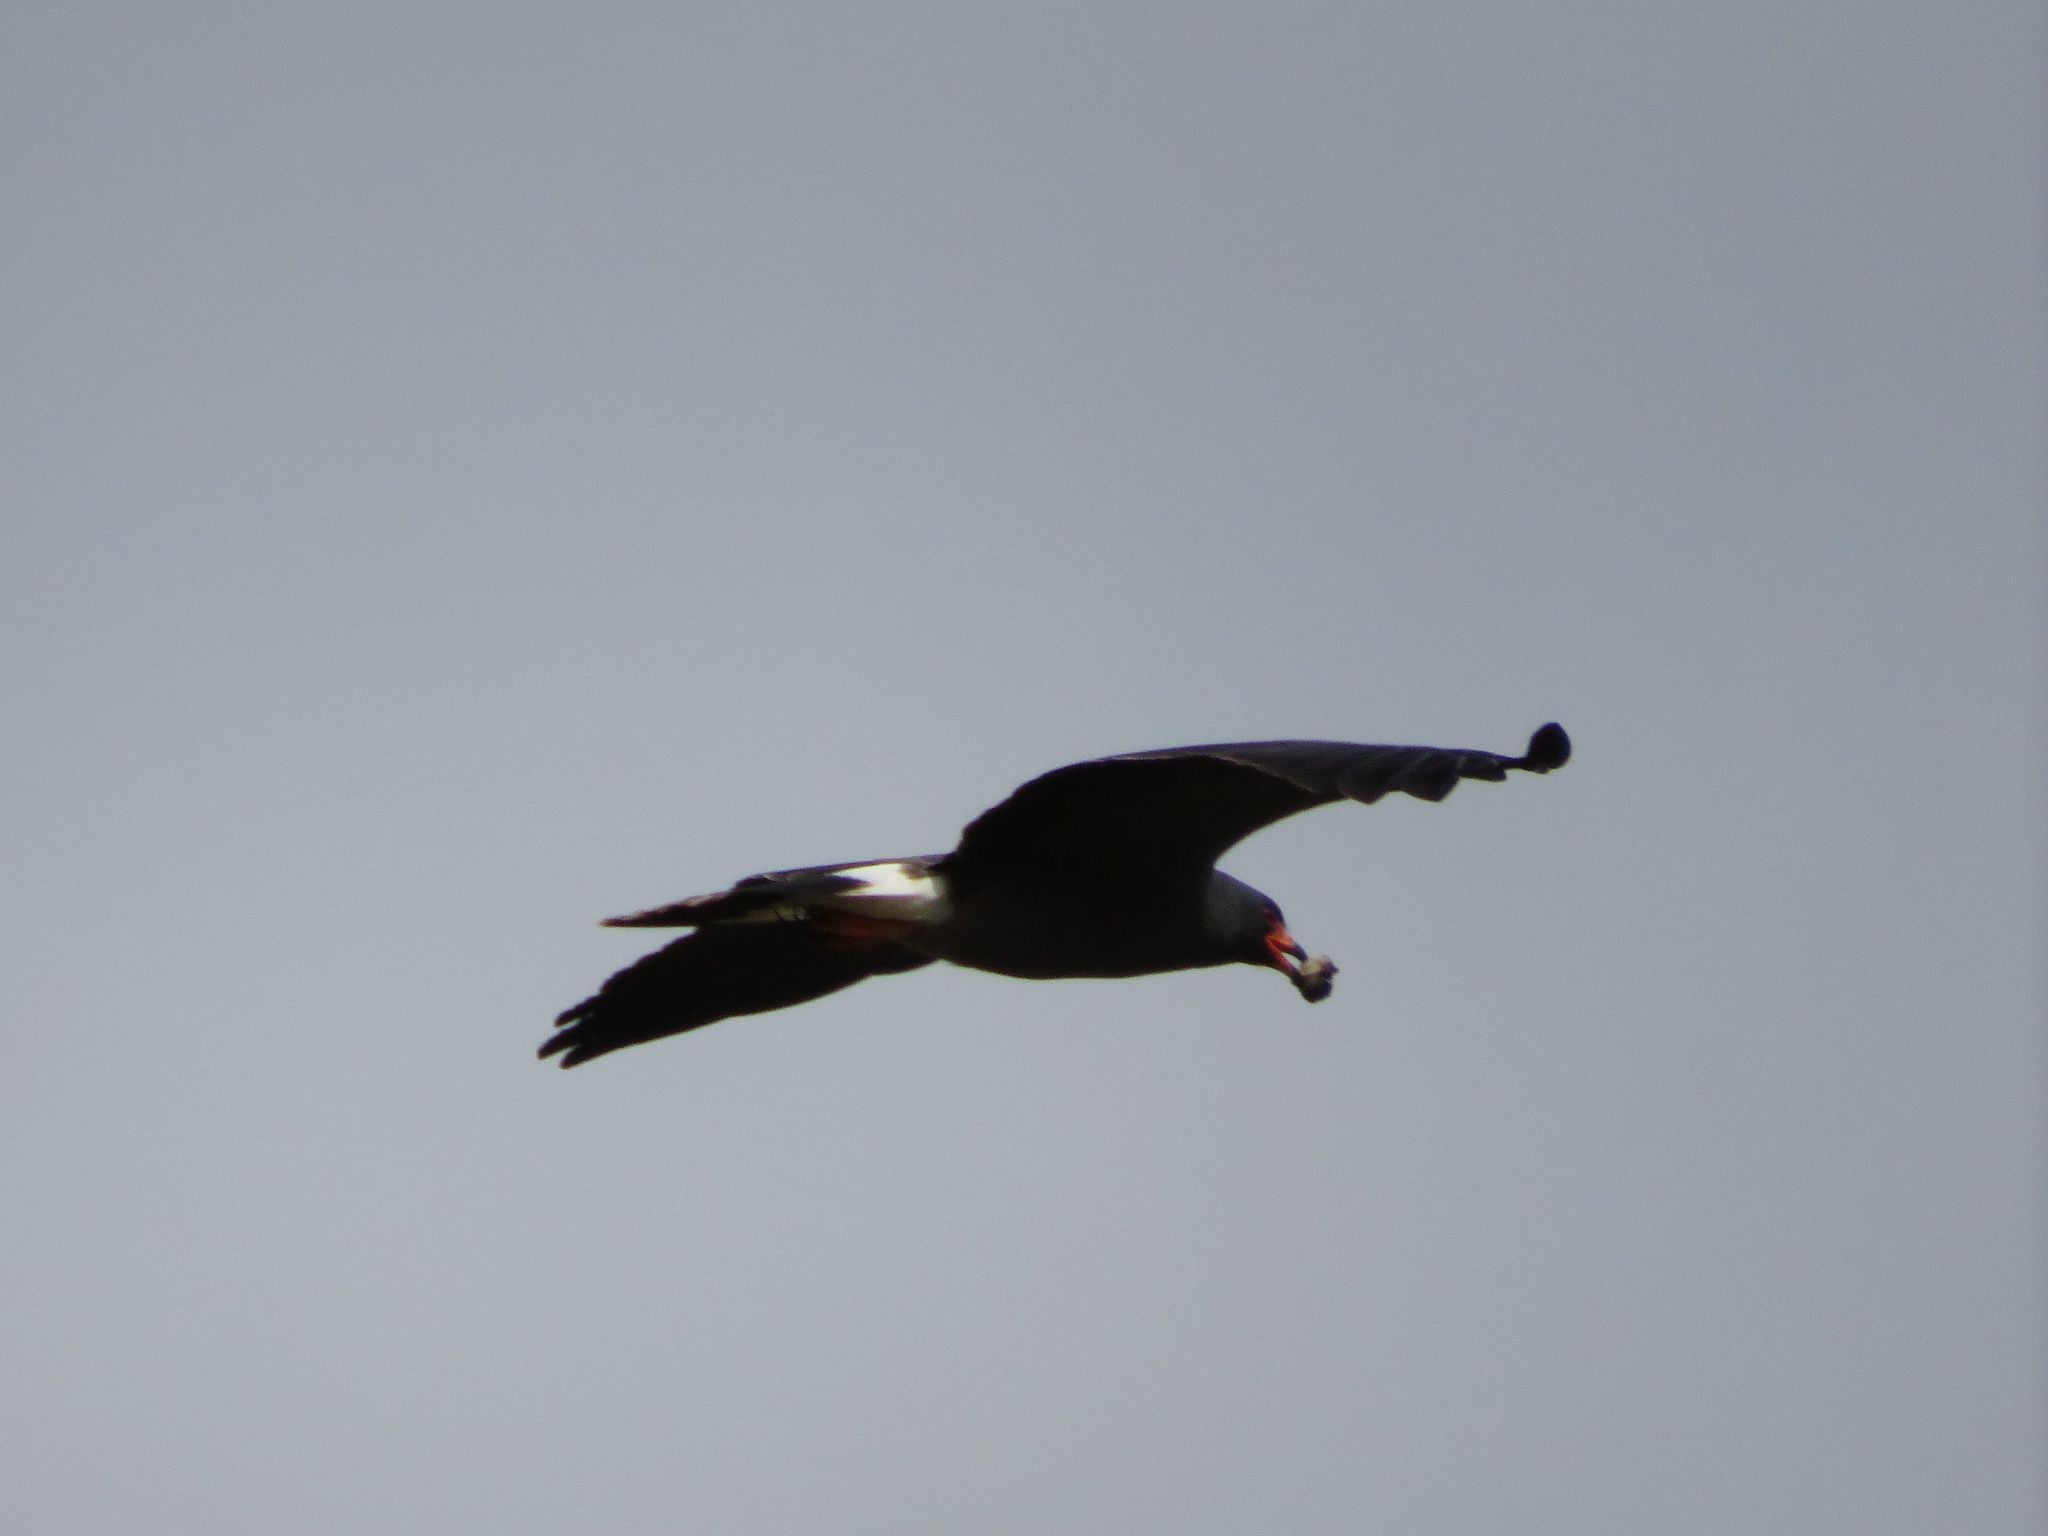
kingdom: Animalia
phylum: Chordata
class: Aves
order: Accipitriformes
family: Accipitridae
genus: Rostrhamus
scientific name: Rostrhamus sociabilis
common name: Snail kite
